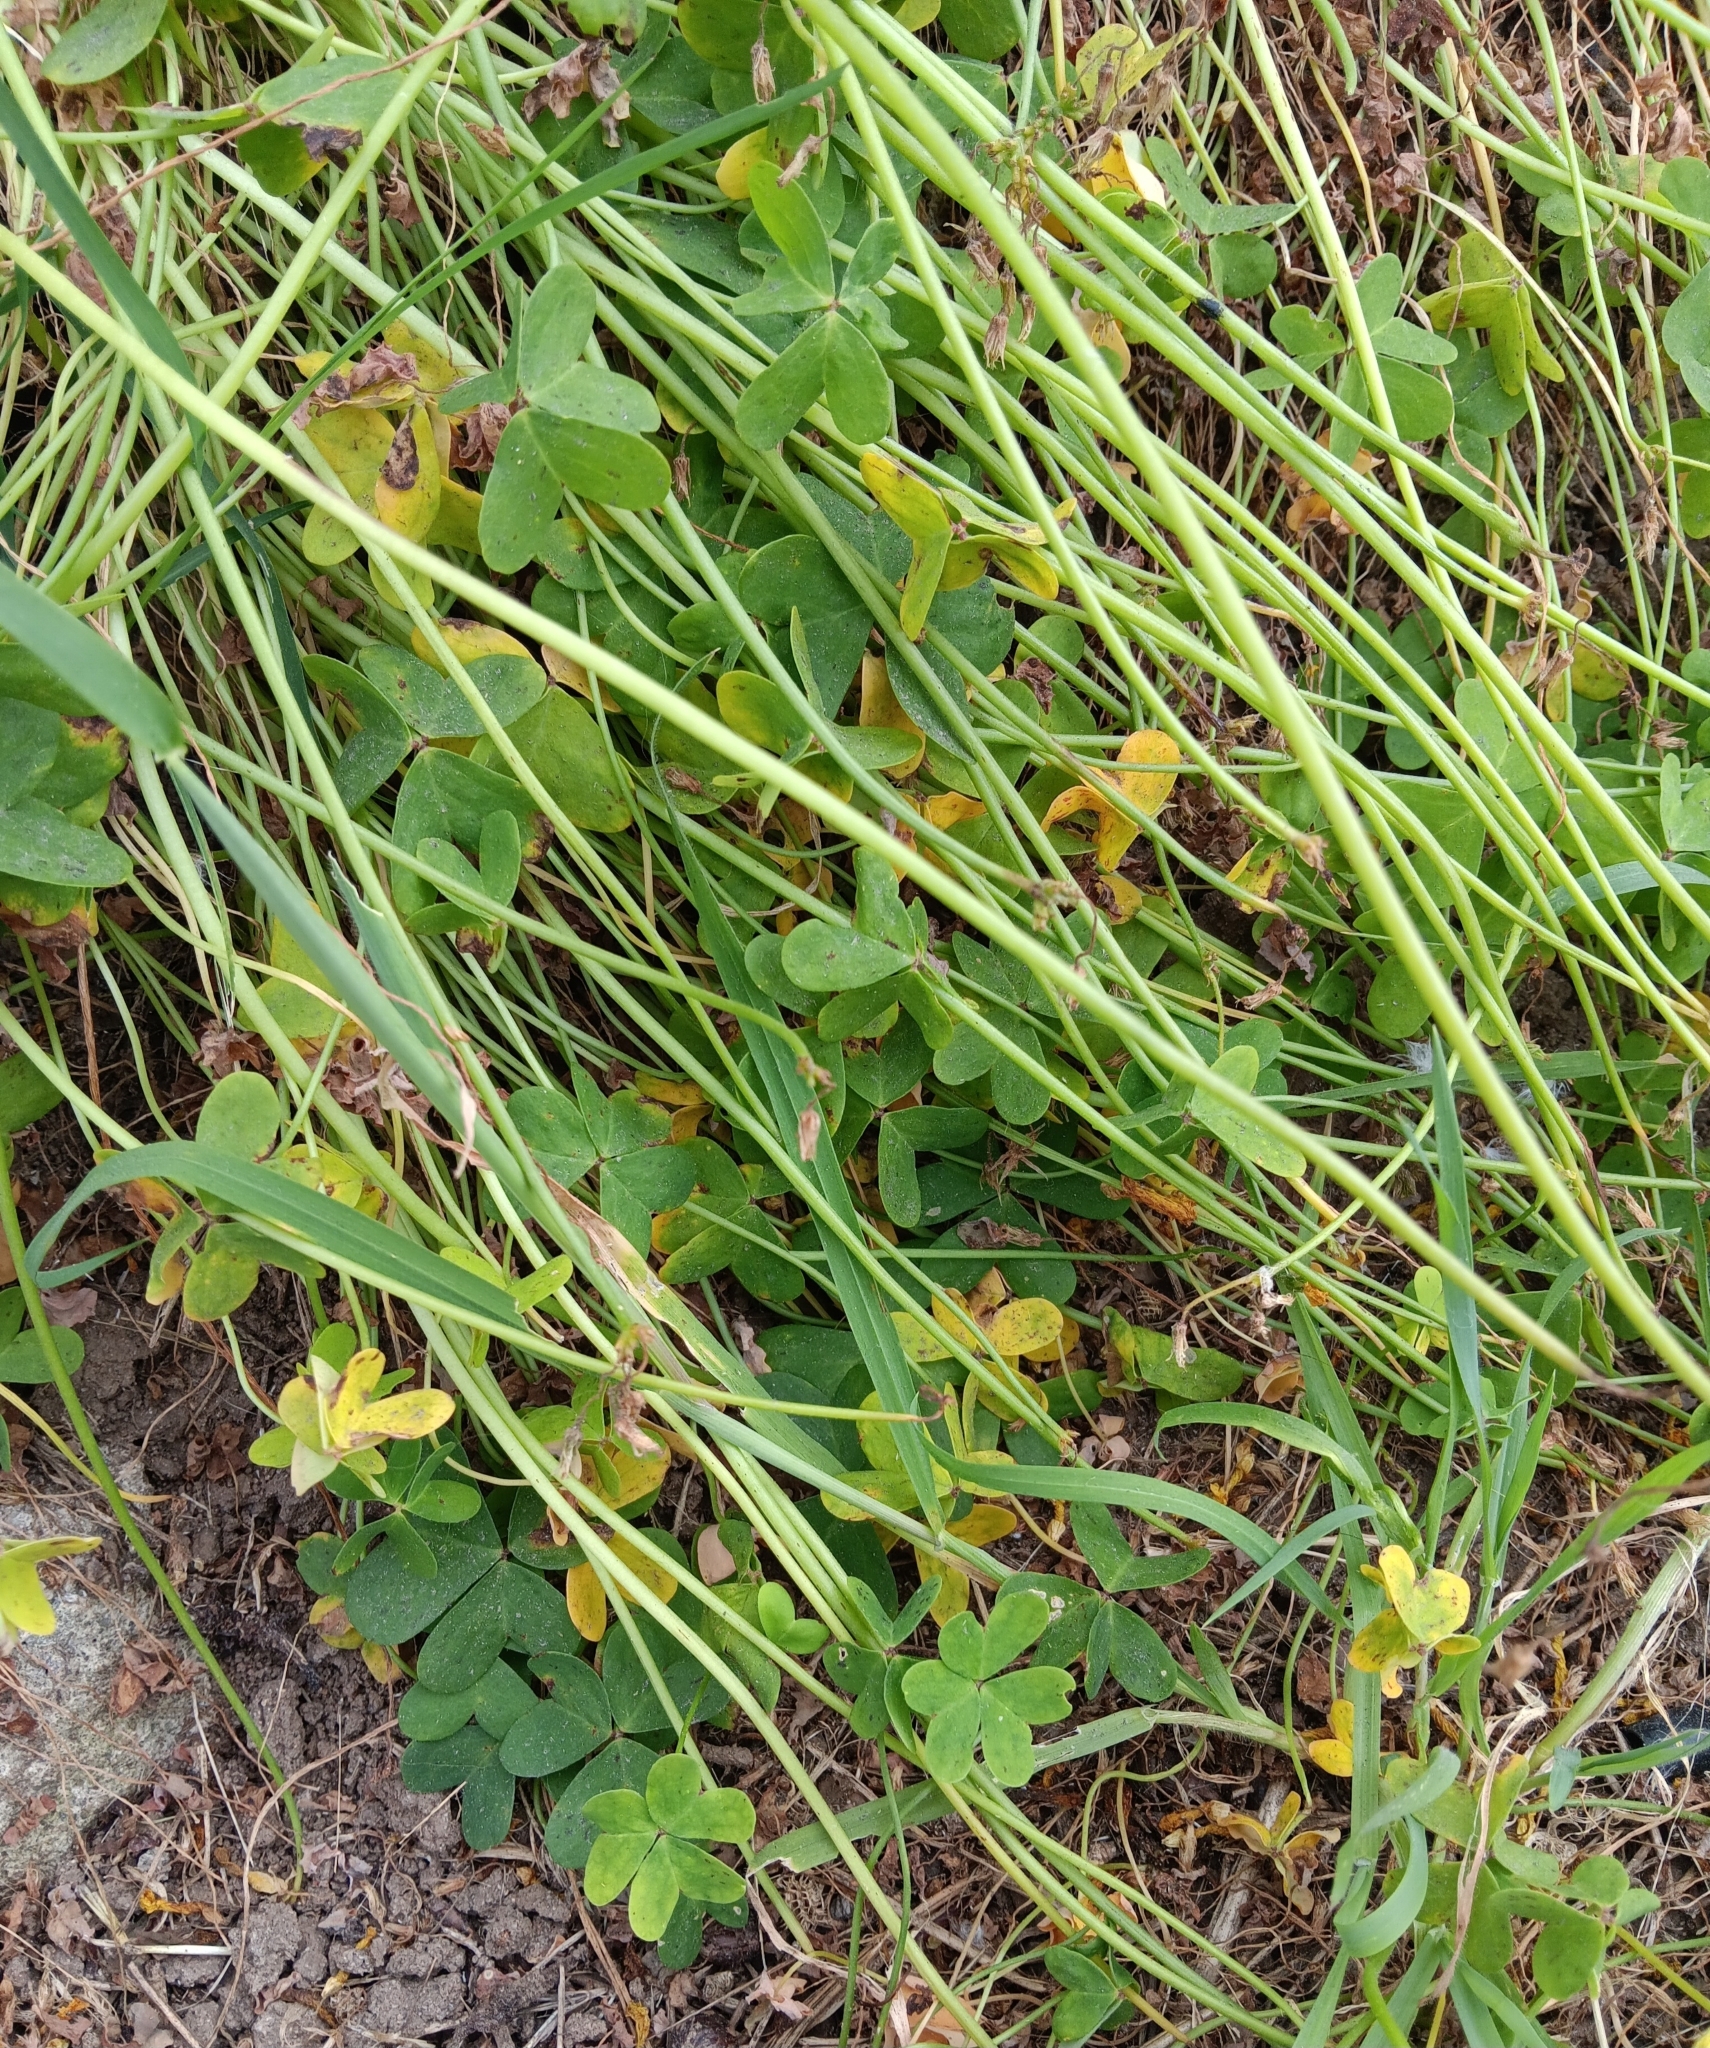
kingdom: Plantae
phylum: Tracheophyta
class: Magnoliopsida
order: Oxalidales
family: Oxalidaceae
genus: Oxalis
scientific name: Oxalis pes-caprae
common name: Bermuda-buttercup
